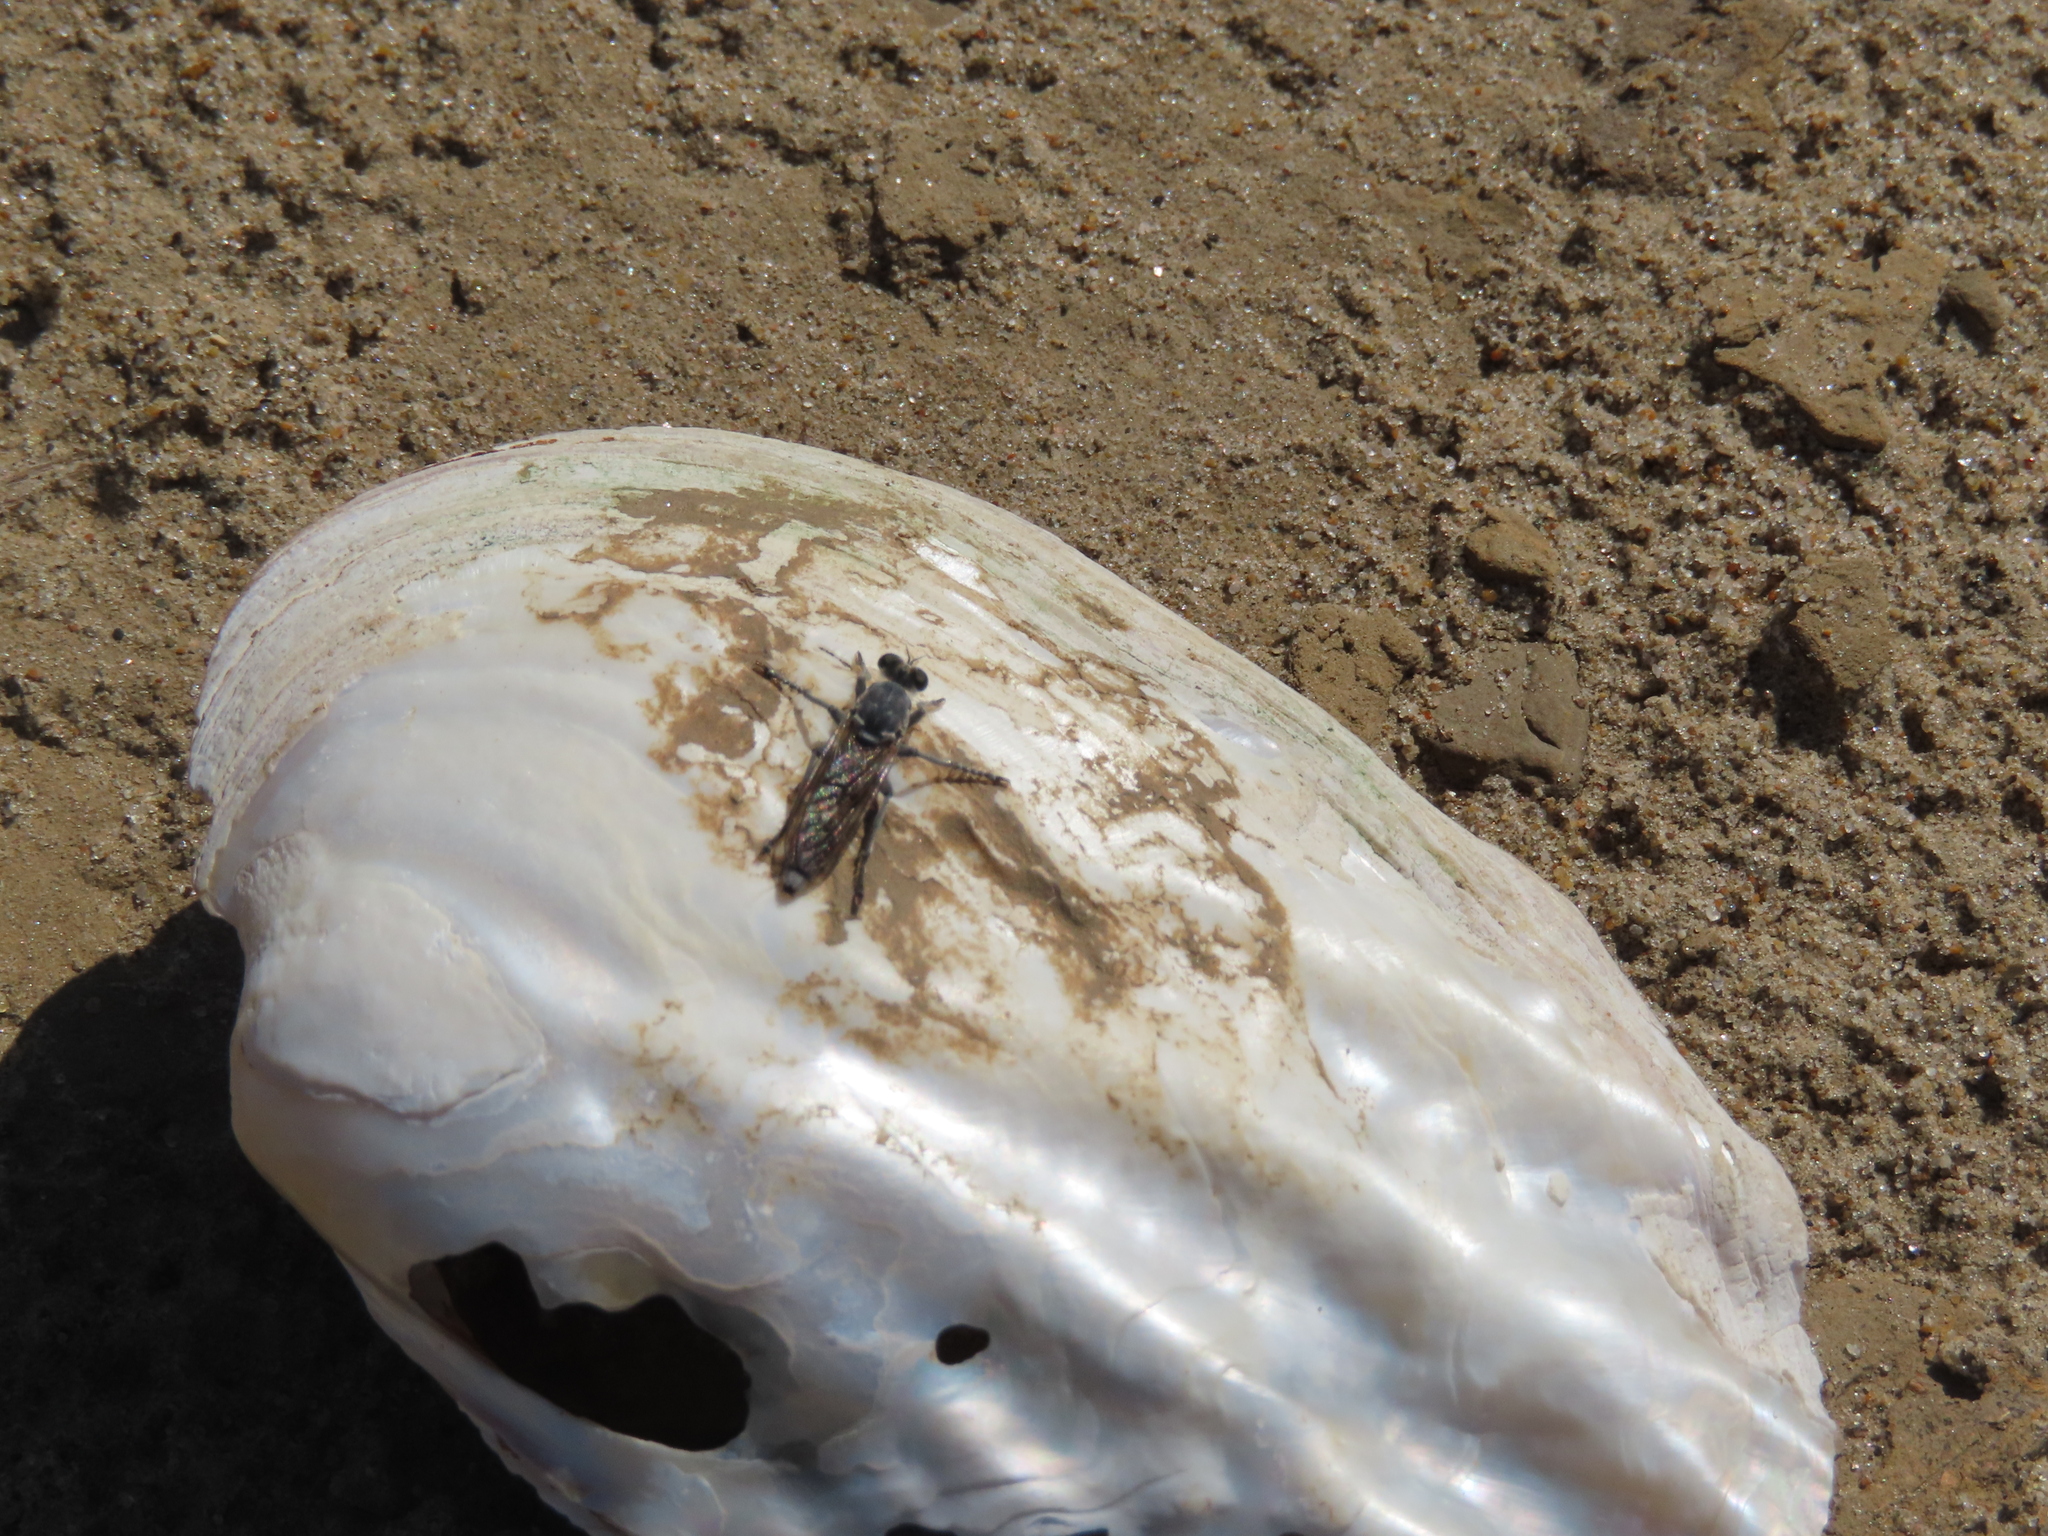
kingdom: Animalia
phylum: Arthropoda
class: Insecta
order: Diptera
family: Asilidae
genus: Stichopogon
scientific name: Stichopogon trifasciatus
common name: Three-banded robber fly
